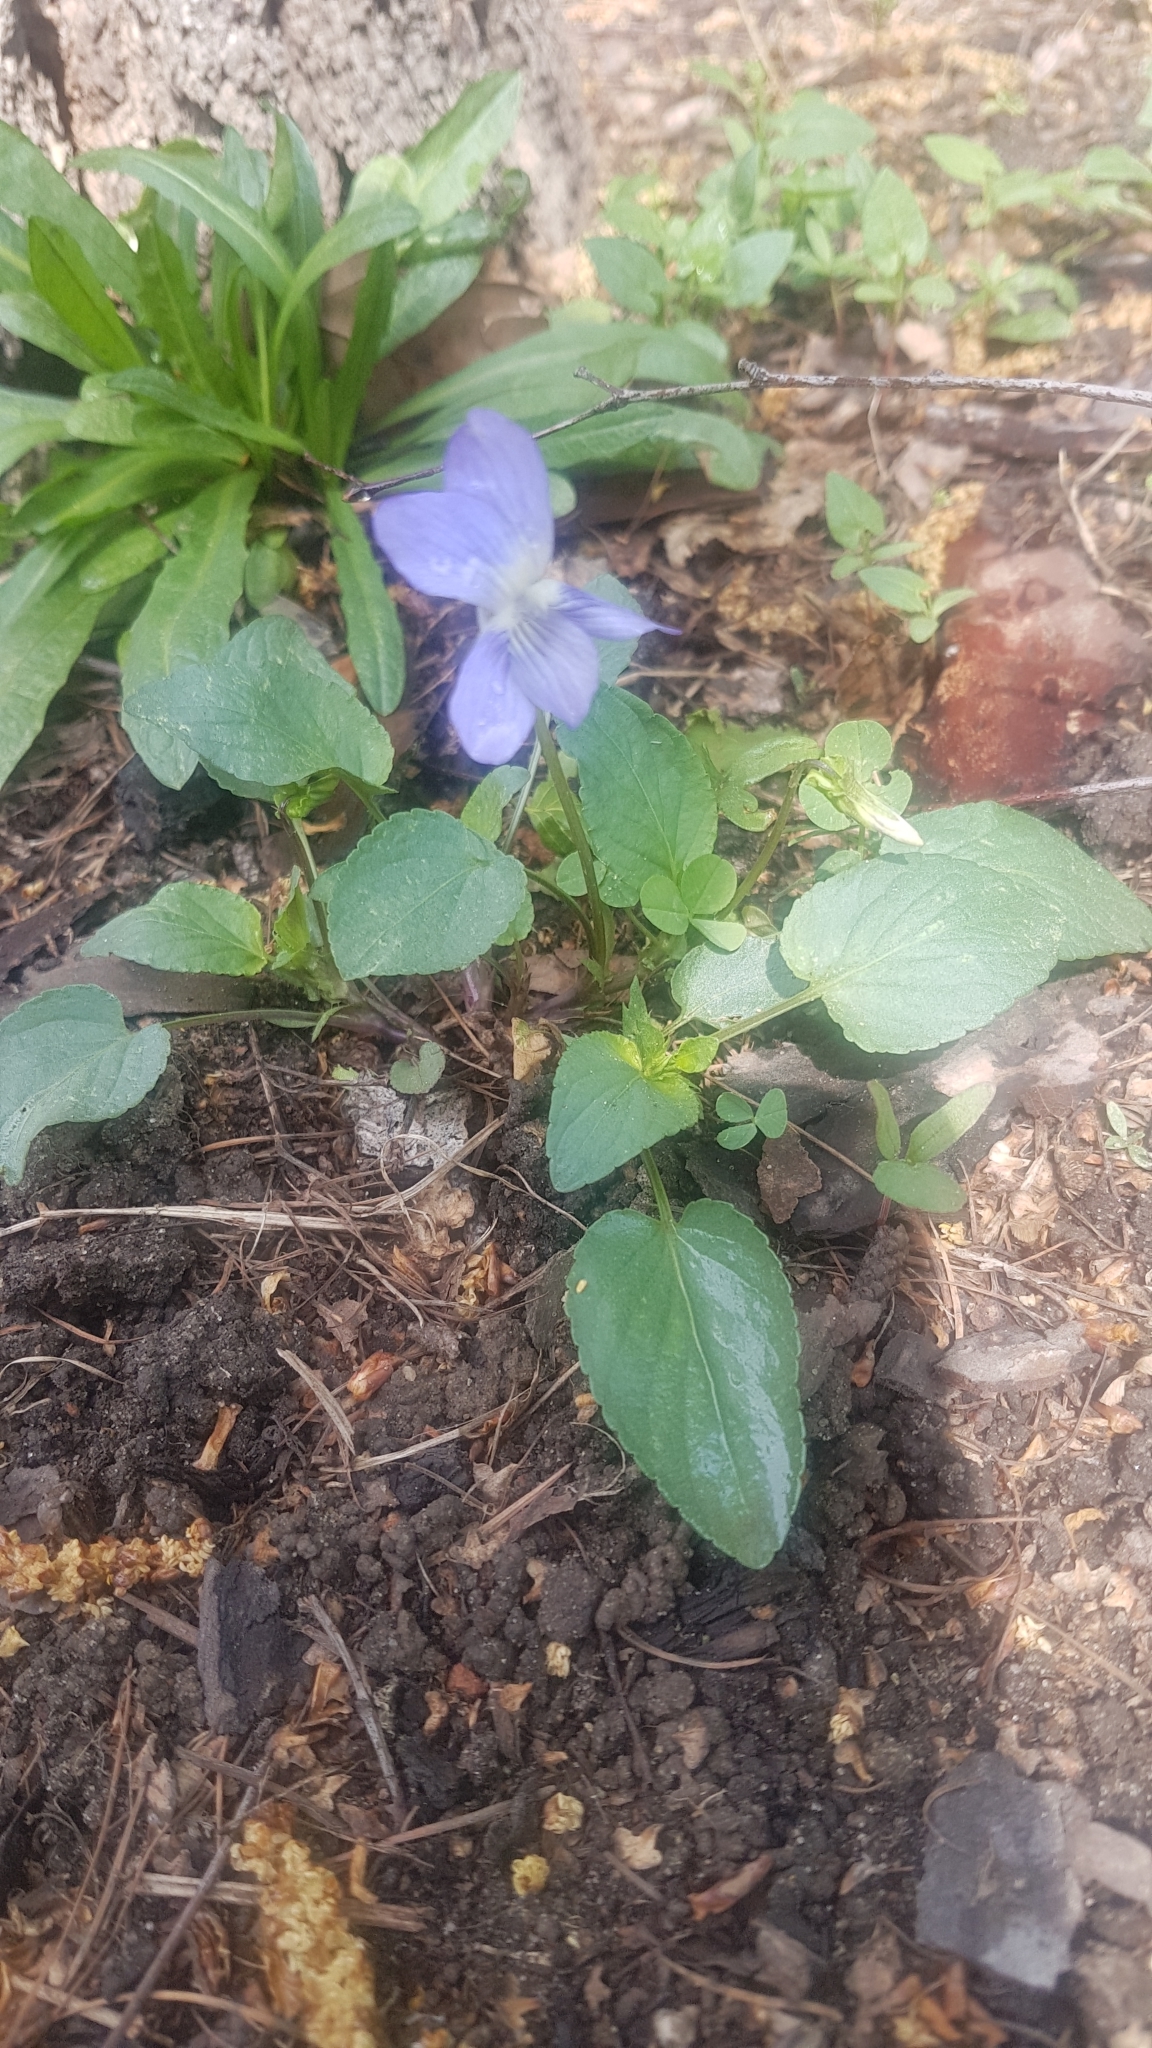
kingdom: Plantae
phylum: Tracheophyta
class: Magnoliopsida
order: Malpighiales
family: Violaceae
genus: Viola
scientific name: Viola
